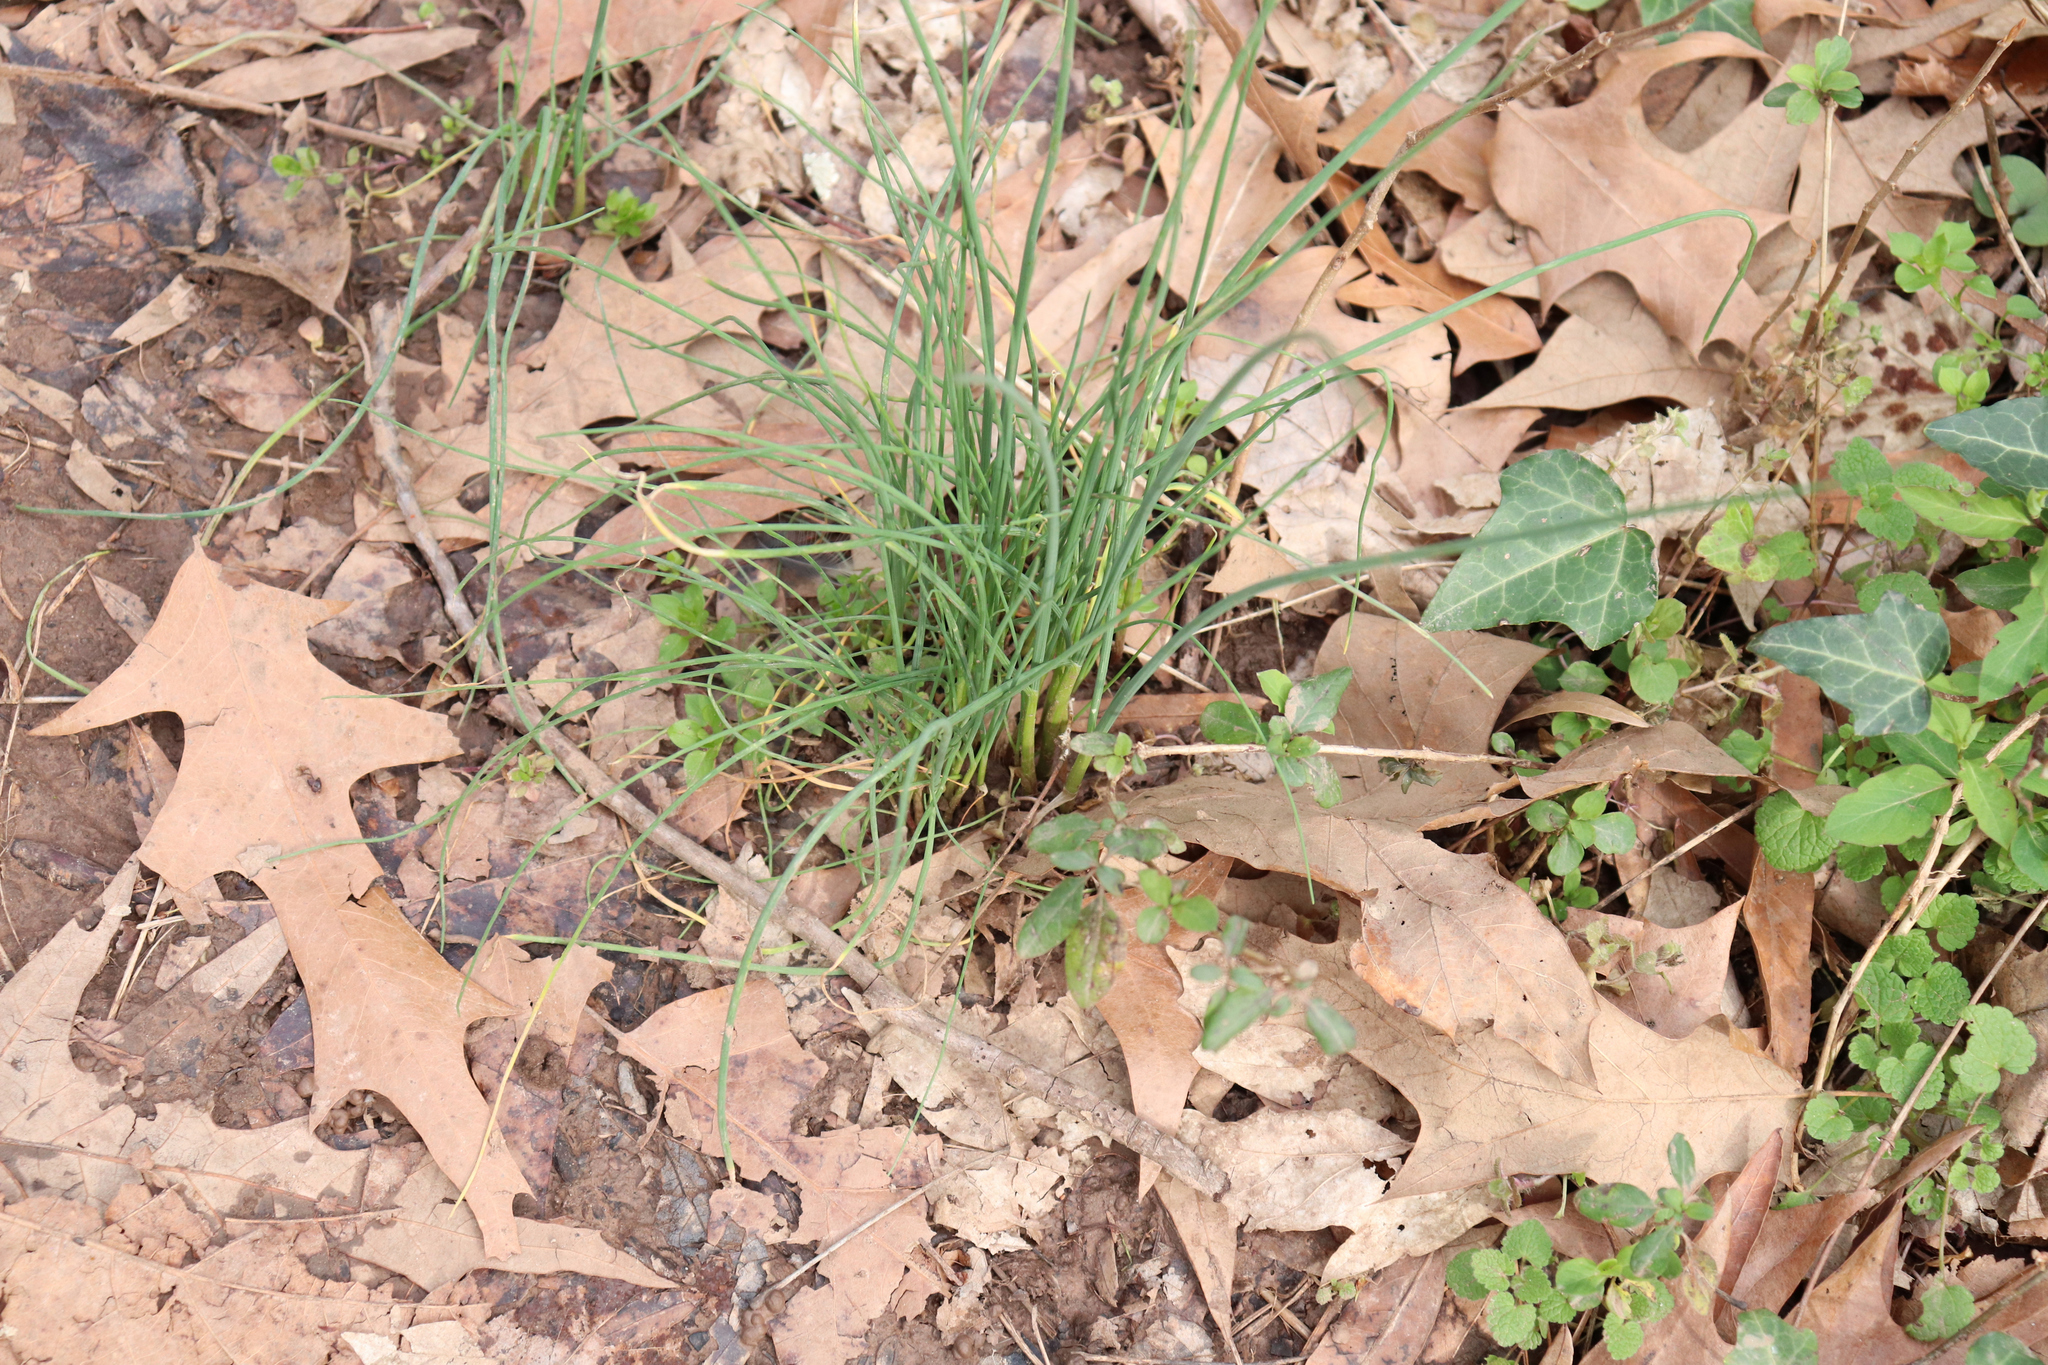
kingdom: Plantae
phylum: Tracheophyta
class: Liliopsida
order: Asparagales
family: Amaryllidaceae
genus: Allium
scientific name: Allium vineale
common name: Crow garlic
